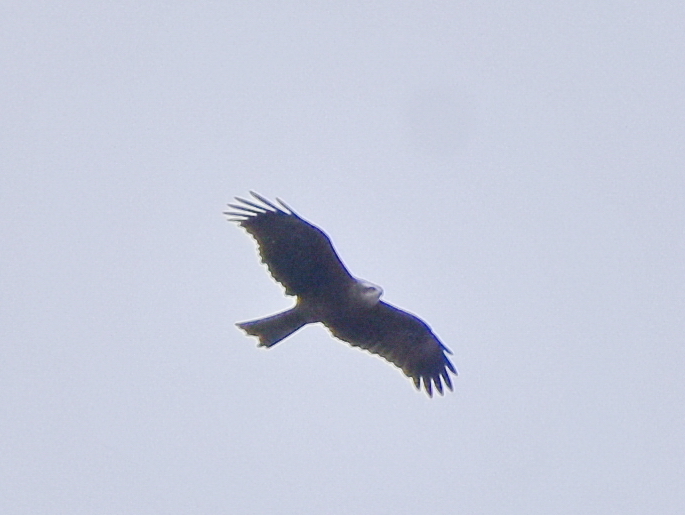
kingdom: Animalia
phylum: Chordata
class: Aves
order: Accipitriformes
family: Accipitridae
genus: Milvus
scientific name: Milvus migrans
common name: Black kite
